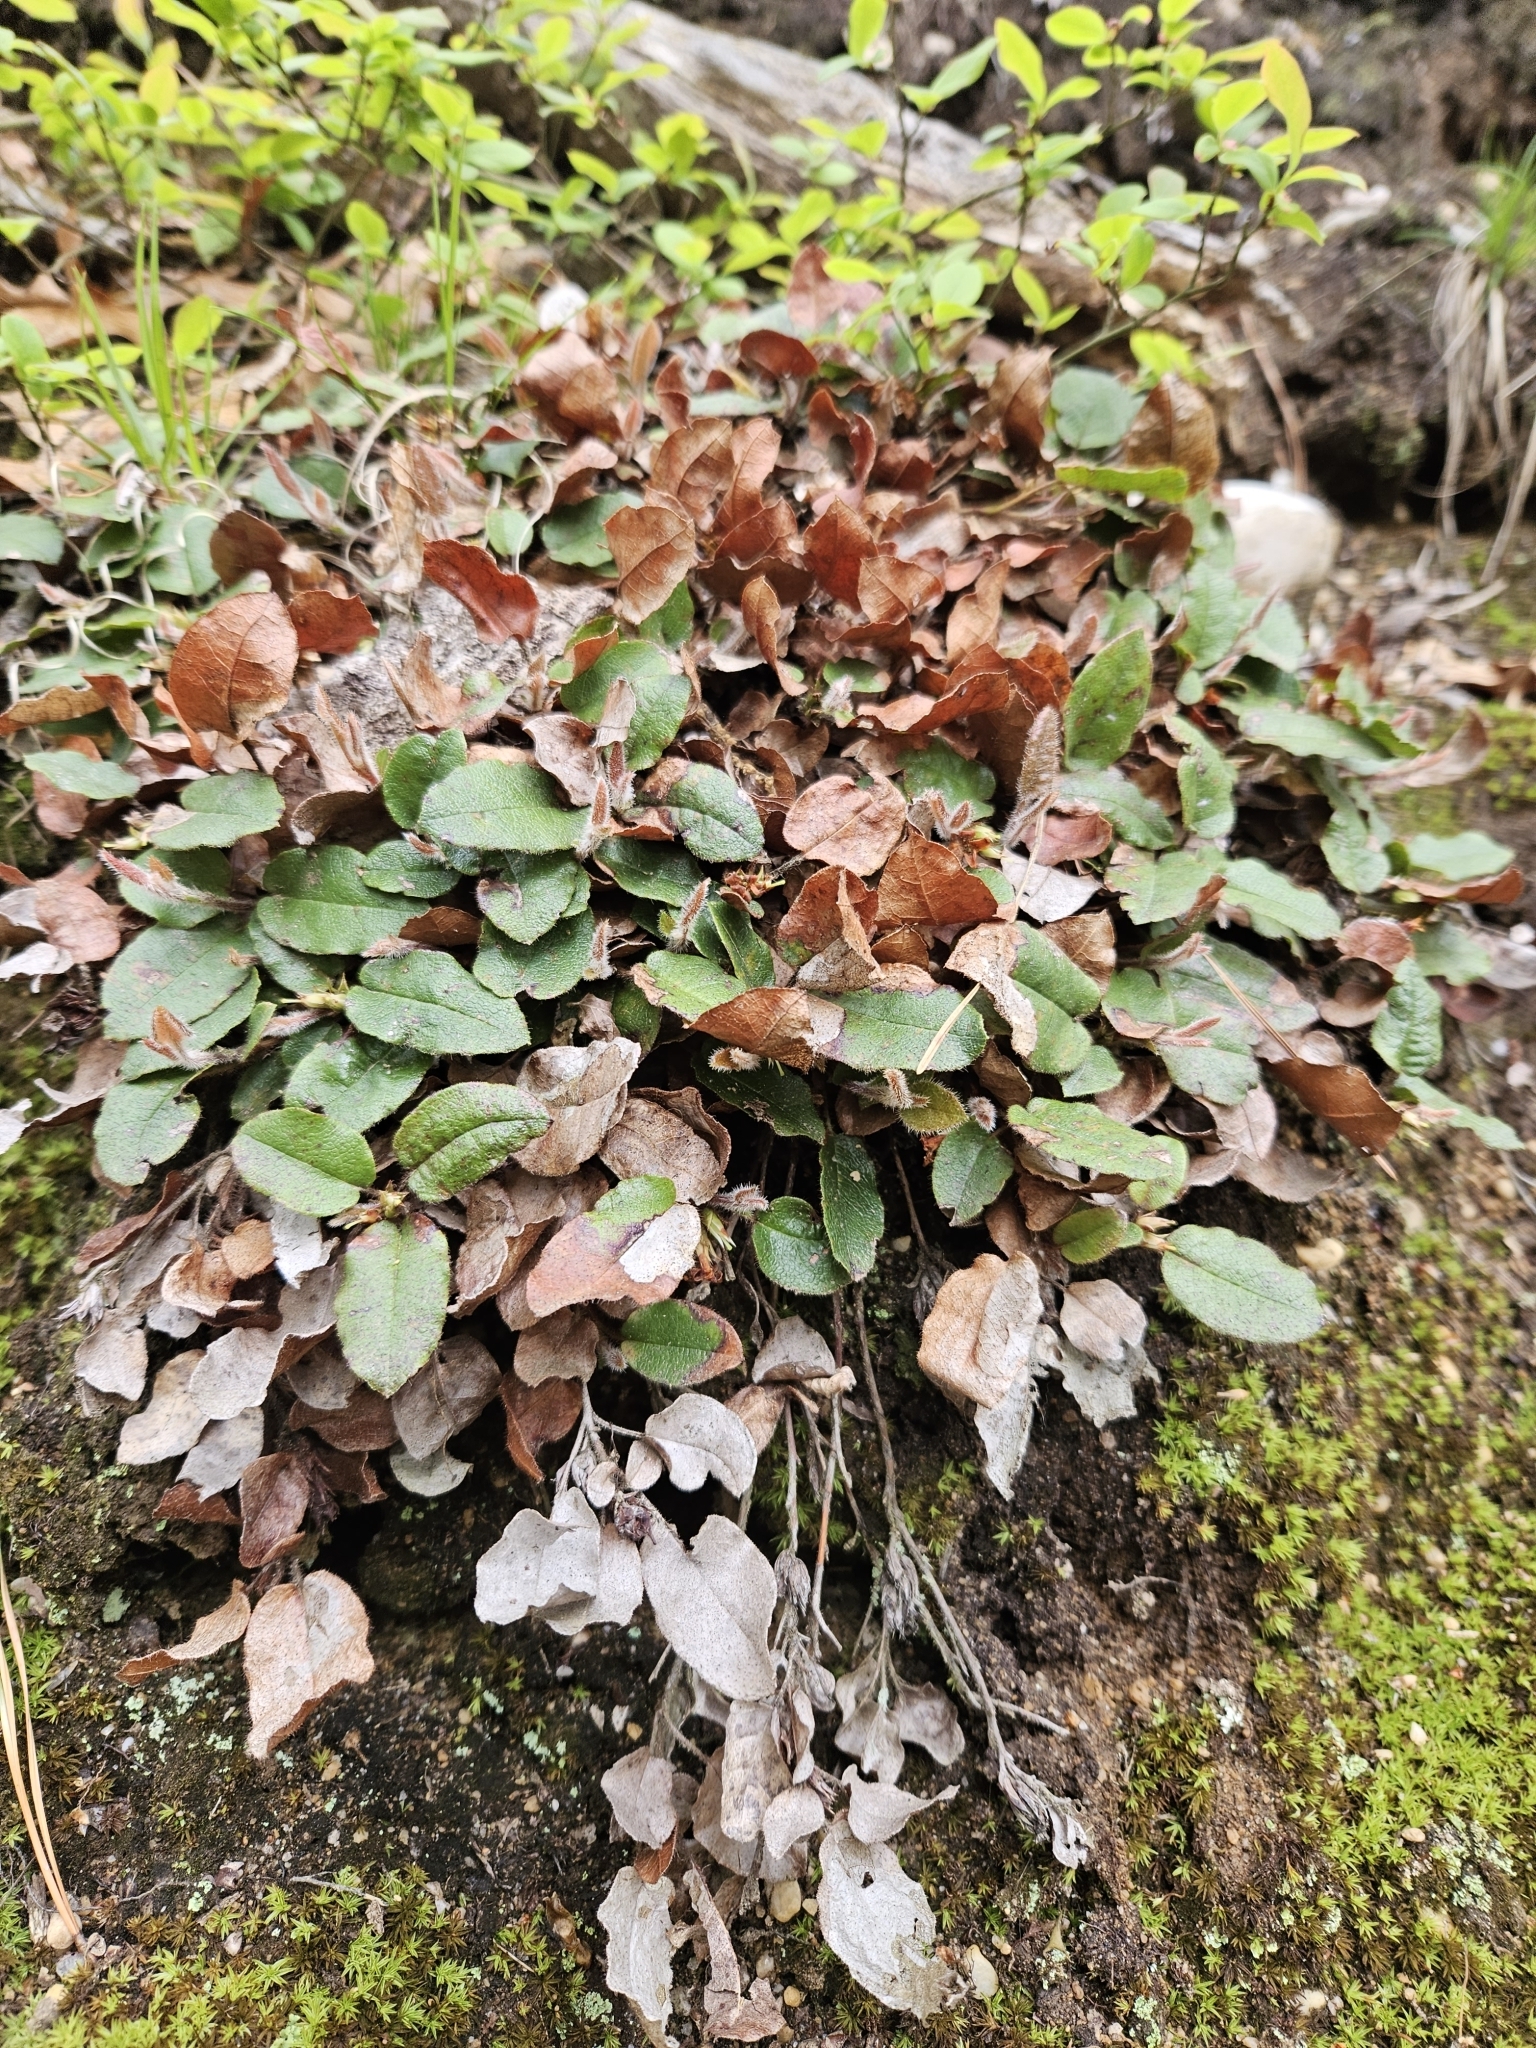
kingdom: Plantae
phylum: Tracheophyta
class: Magnoliopsida
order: Ericales
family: Ericaceae
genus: Epigaea
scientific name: Epigaea repens
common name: Gravelroot
